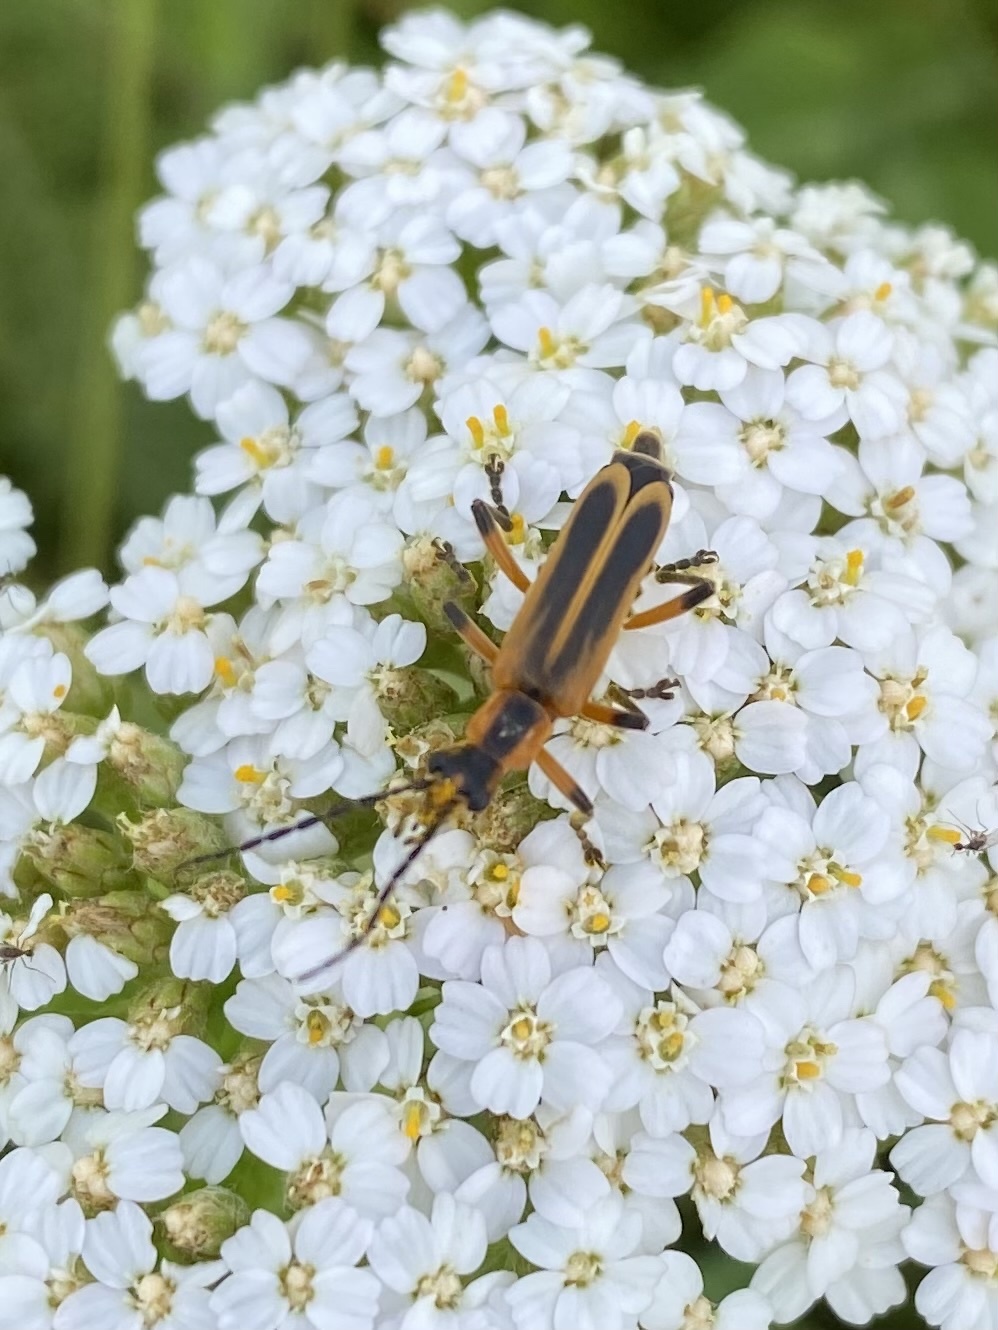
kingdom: Animalia
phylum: Arthropoda
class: Insecta
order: Coleoptera
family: Cantharidae
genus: Chauliognathus
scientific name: Chauliognathus marginatus
